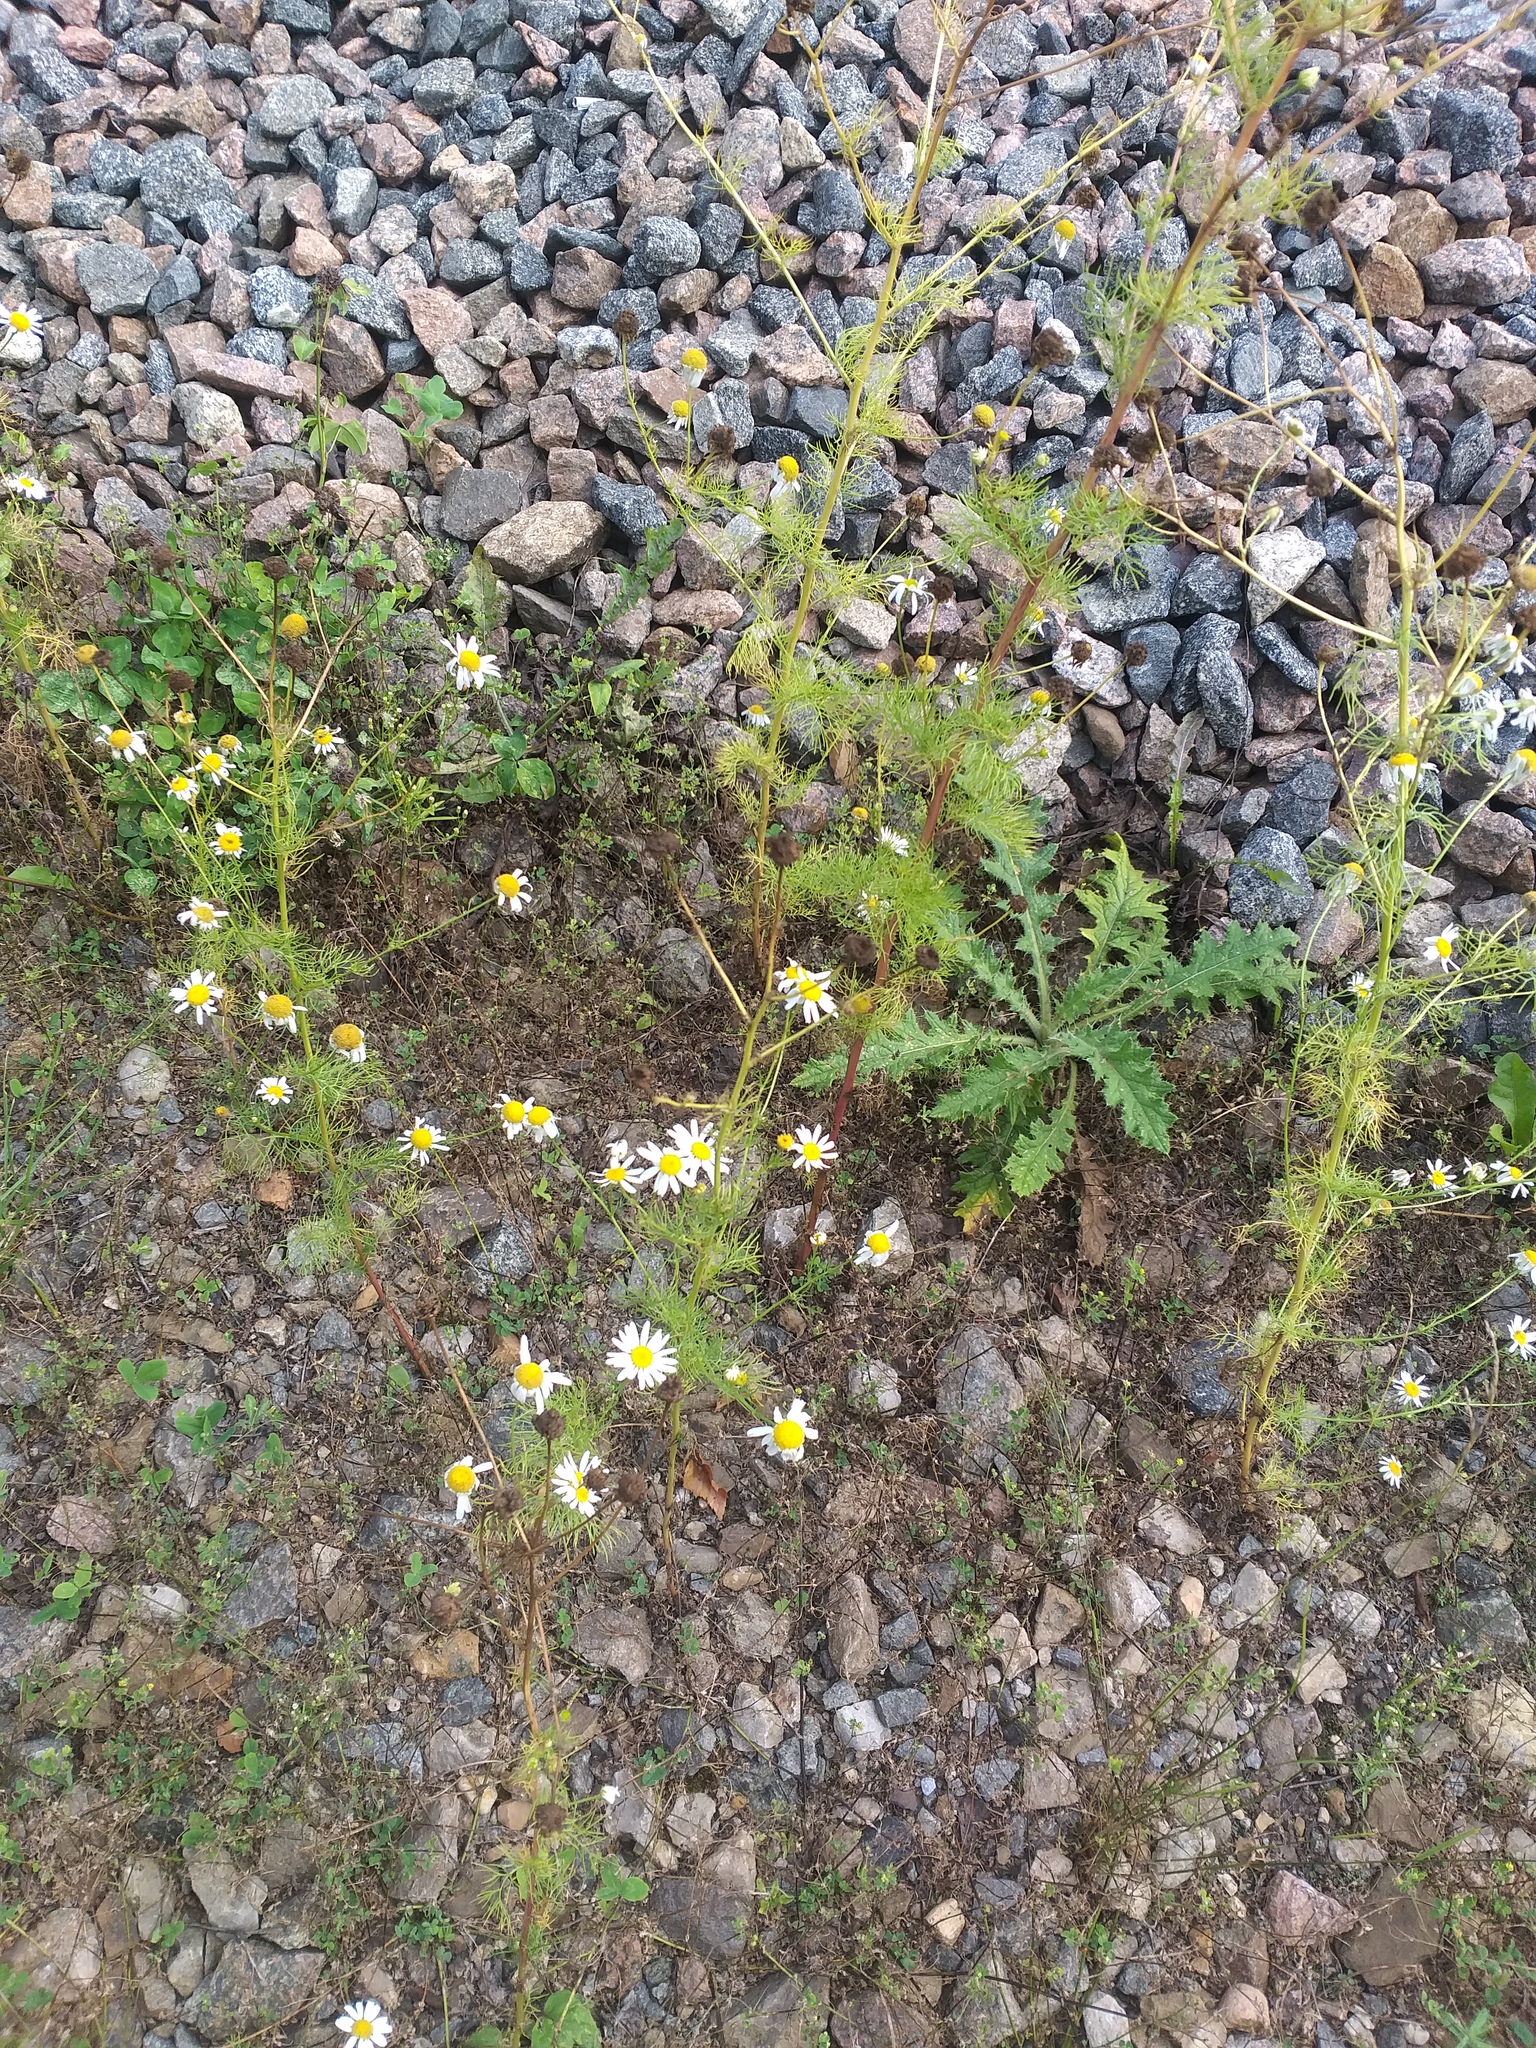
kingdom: Plantae
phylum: Tracheophyta
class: Magnoliopsida
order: Asterales
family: Asteraceae
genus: Tripleurospermum
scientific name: Tripleurospermum inodorum
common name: Scentless mayweed
